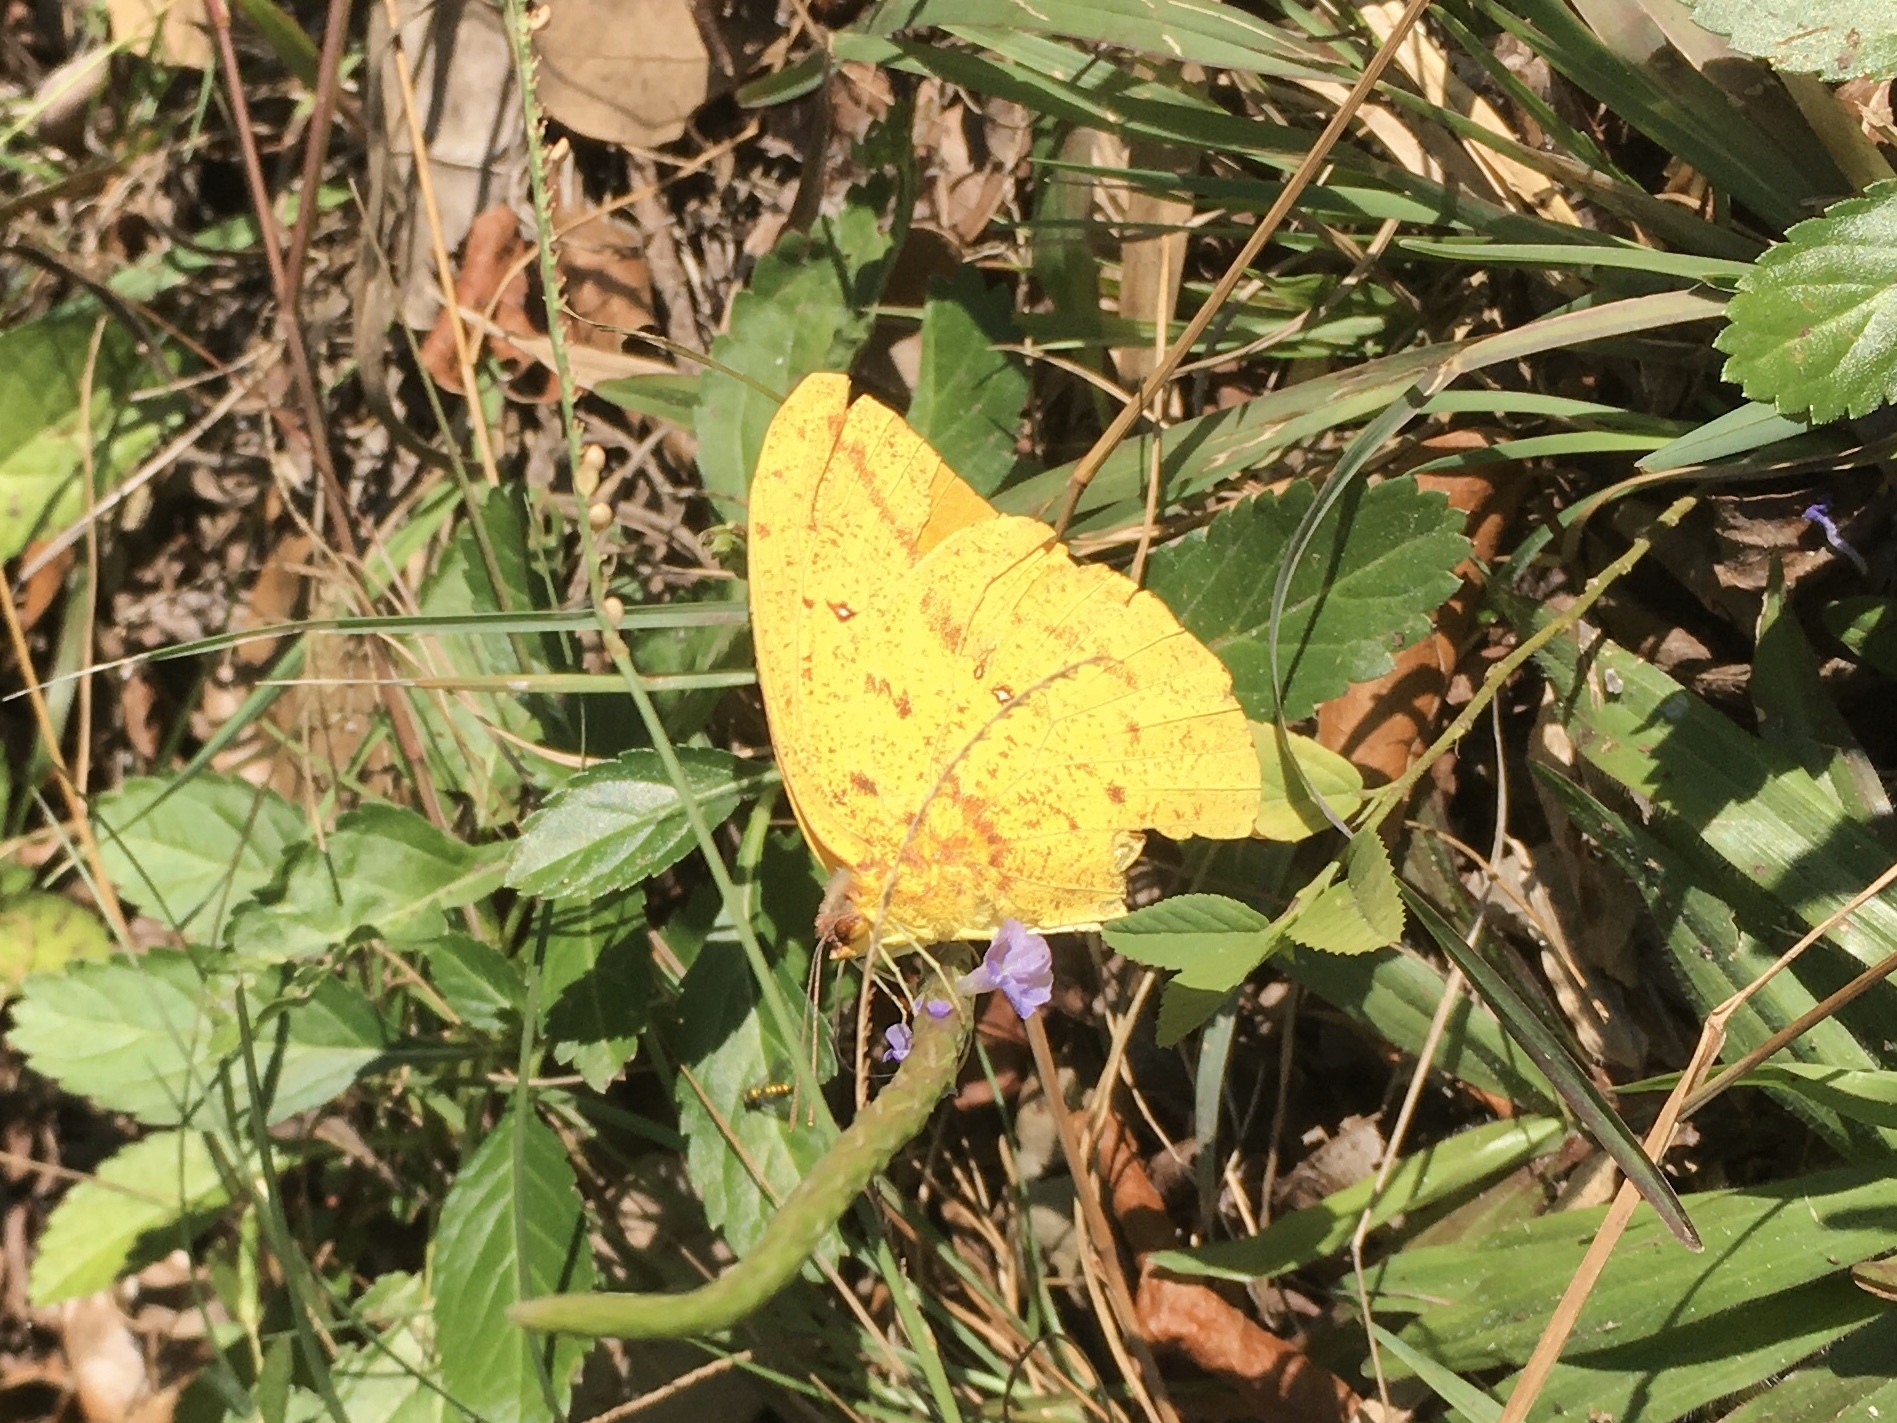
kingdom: Animalia
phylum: Arthropoda
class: Insecta
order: Lepidoptera
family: Pieridae
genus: Phoebis
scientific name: Phoebis agarithe
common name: Large orange sulphur
